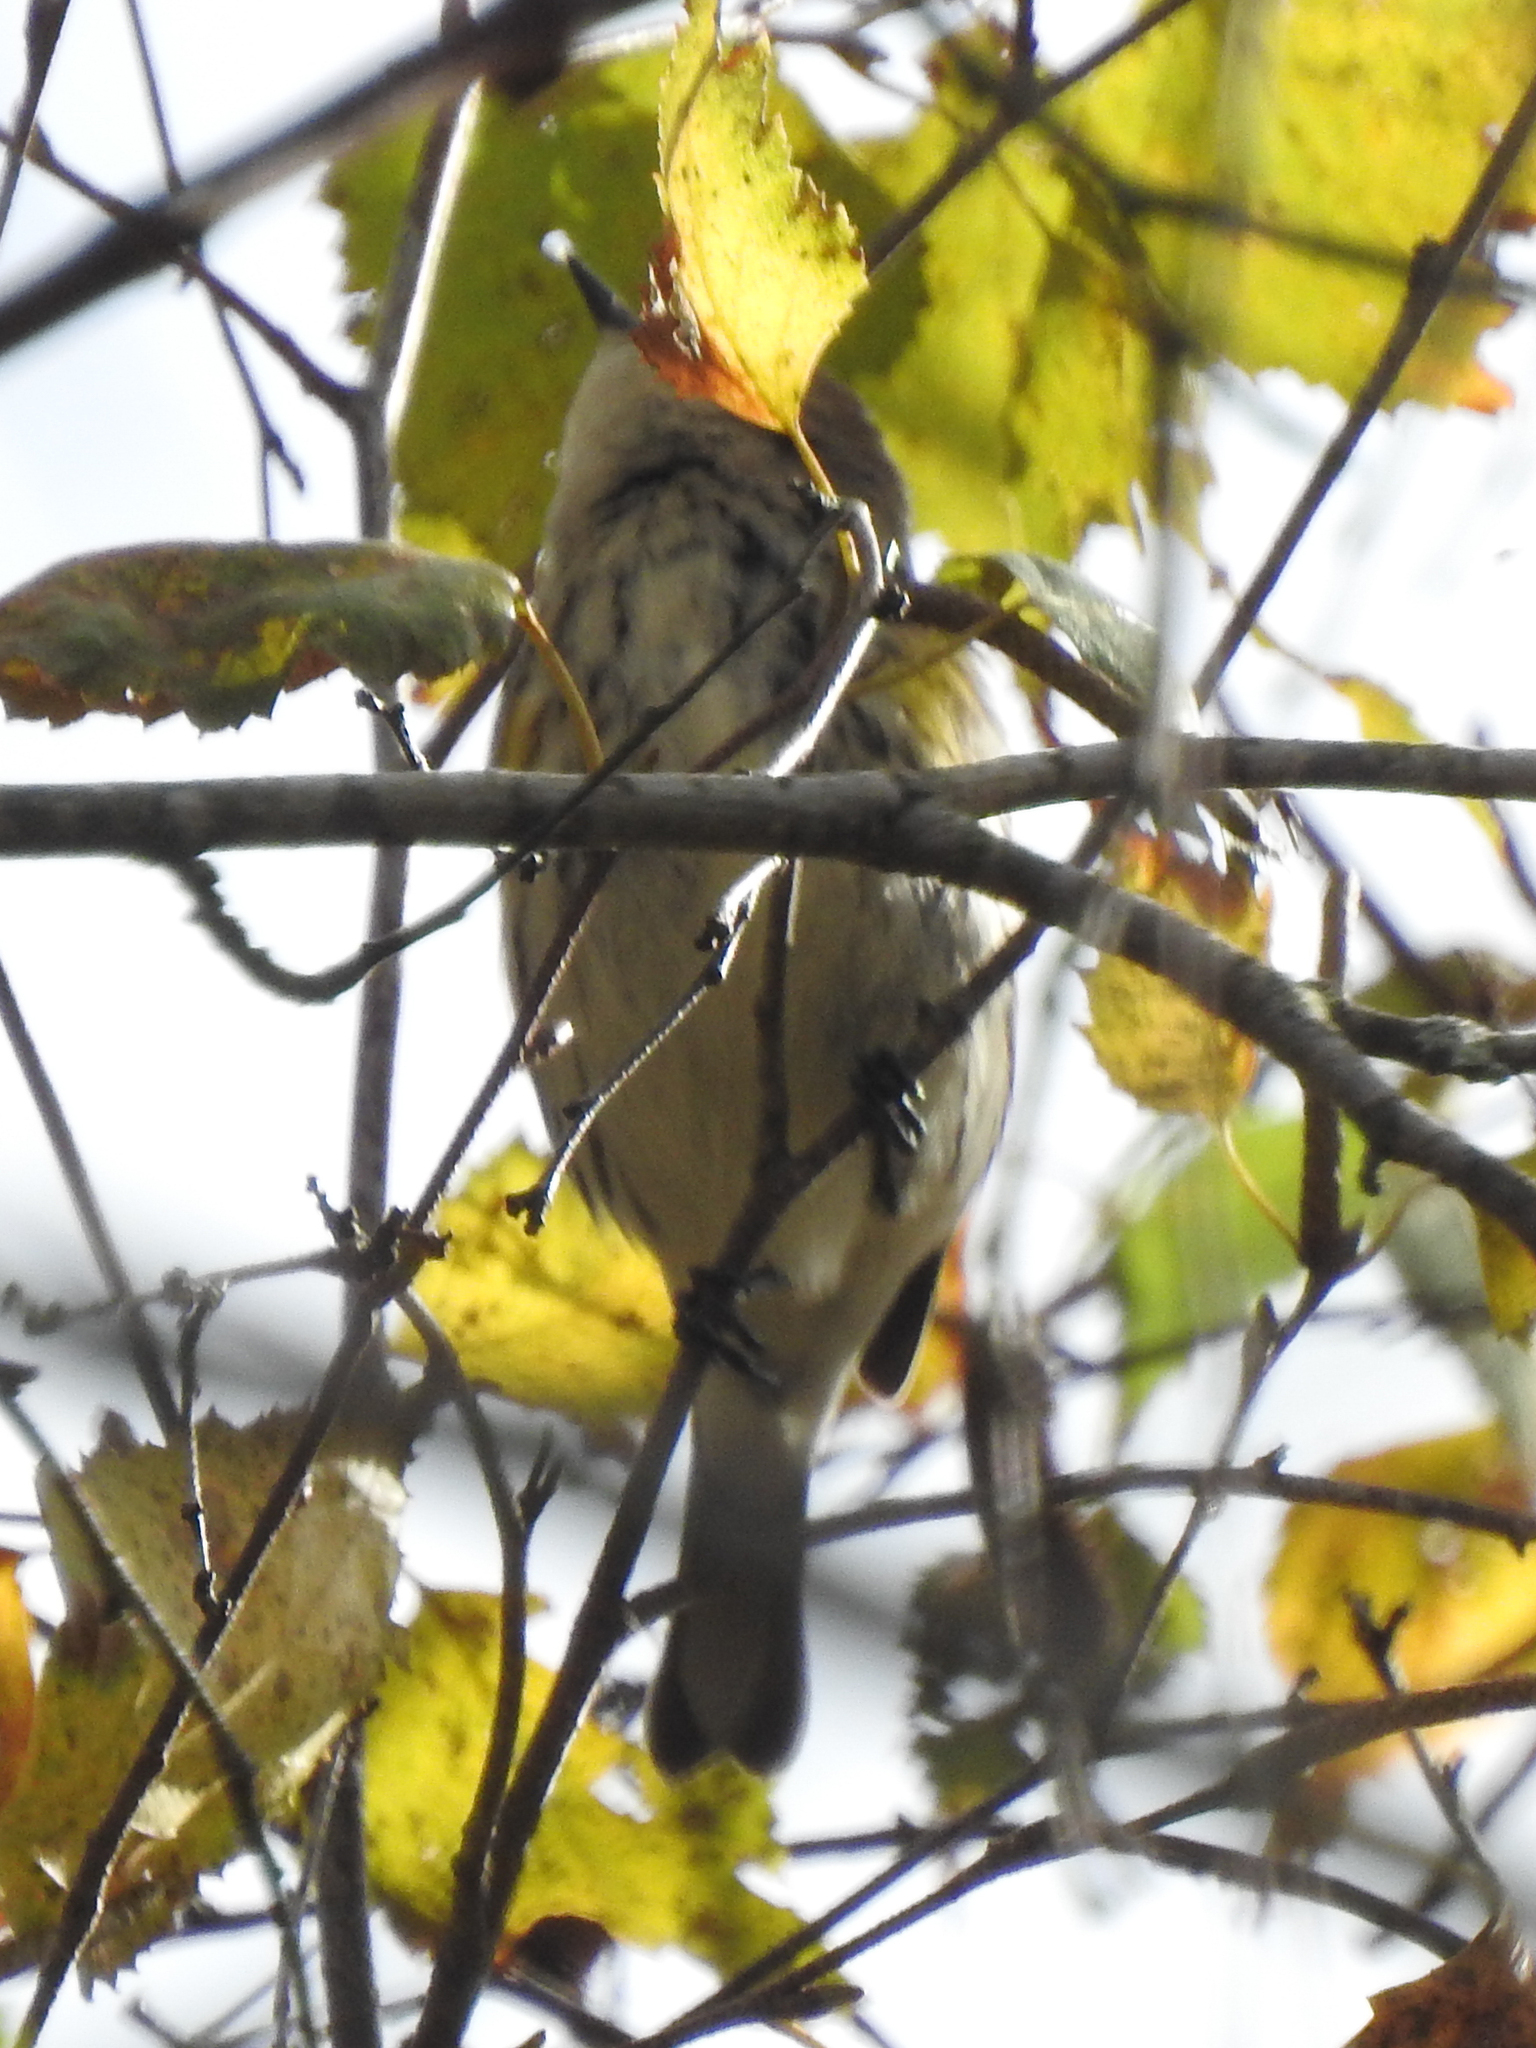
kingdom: Animalia
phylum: Chordata
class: Aves
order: Passeriformes
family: Parulidae
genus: Setophaga
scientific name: Setophaga coronata
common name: Myrtle warbler
